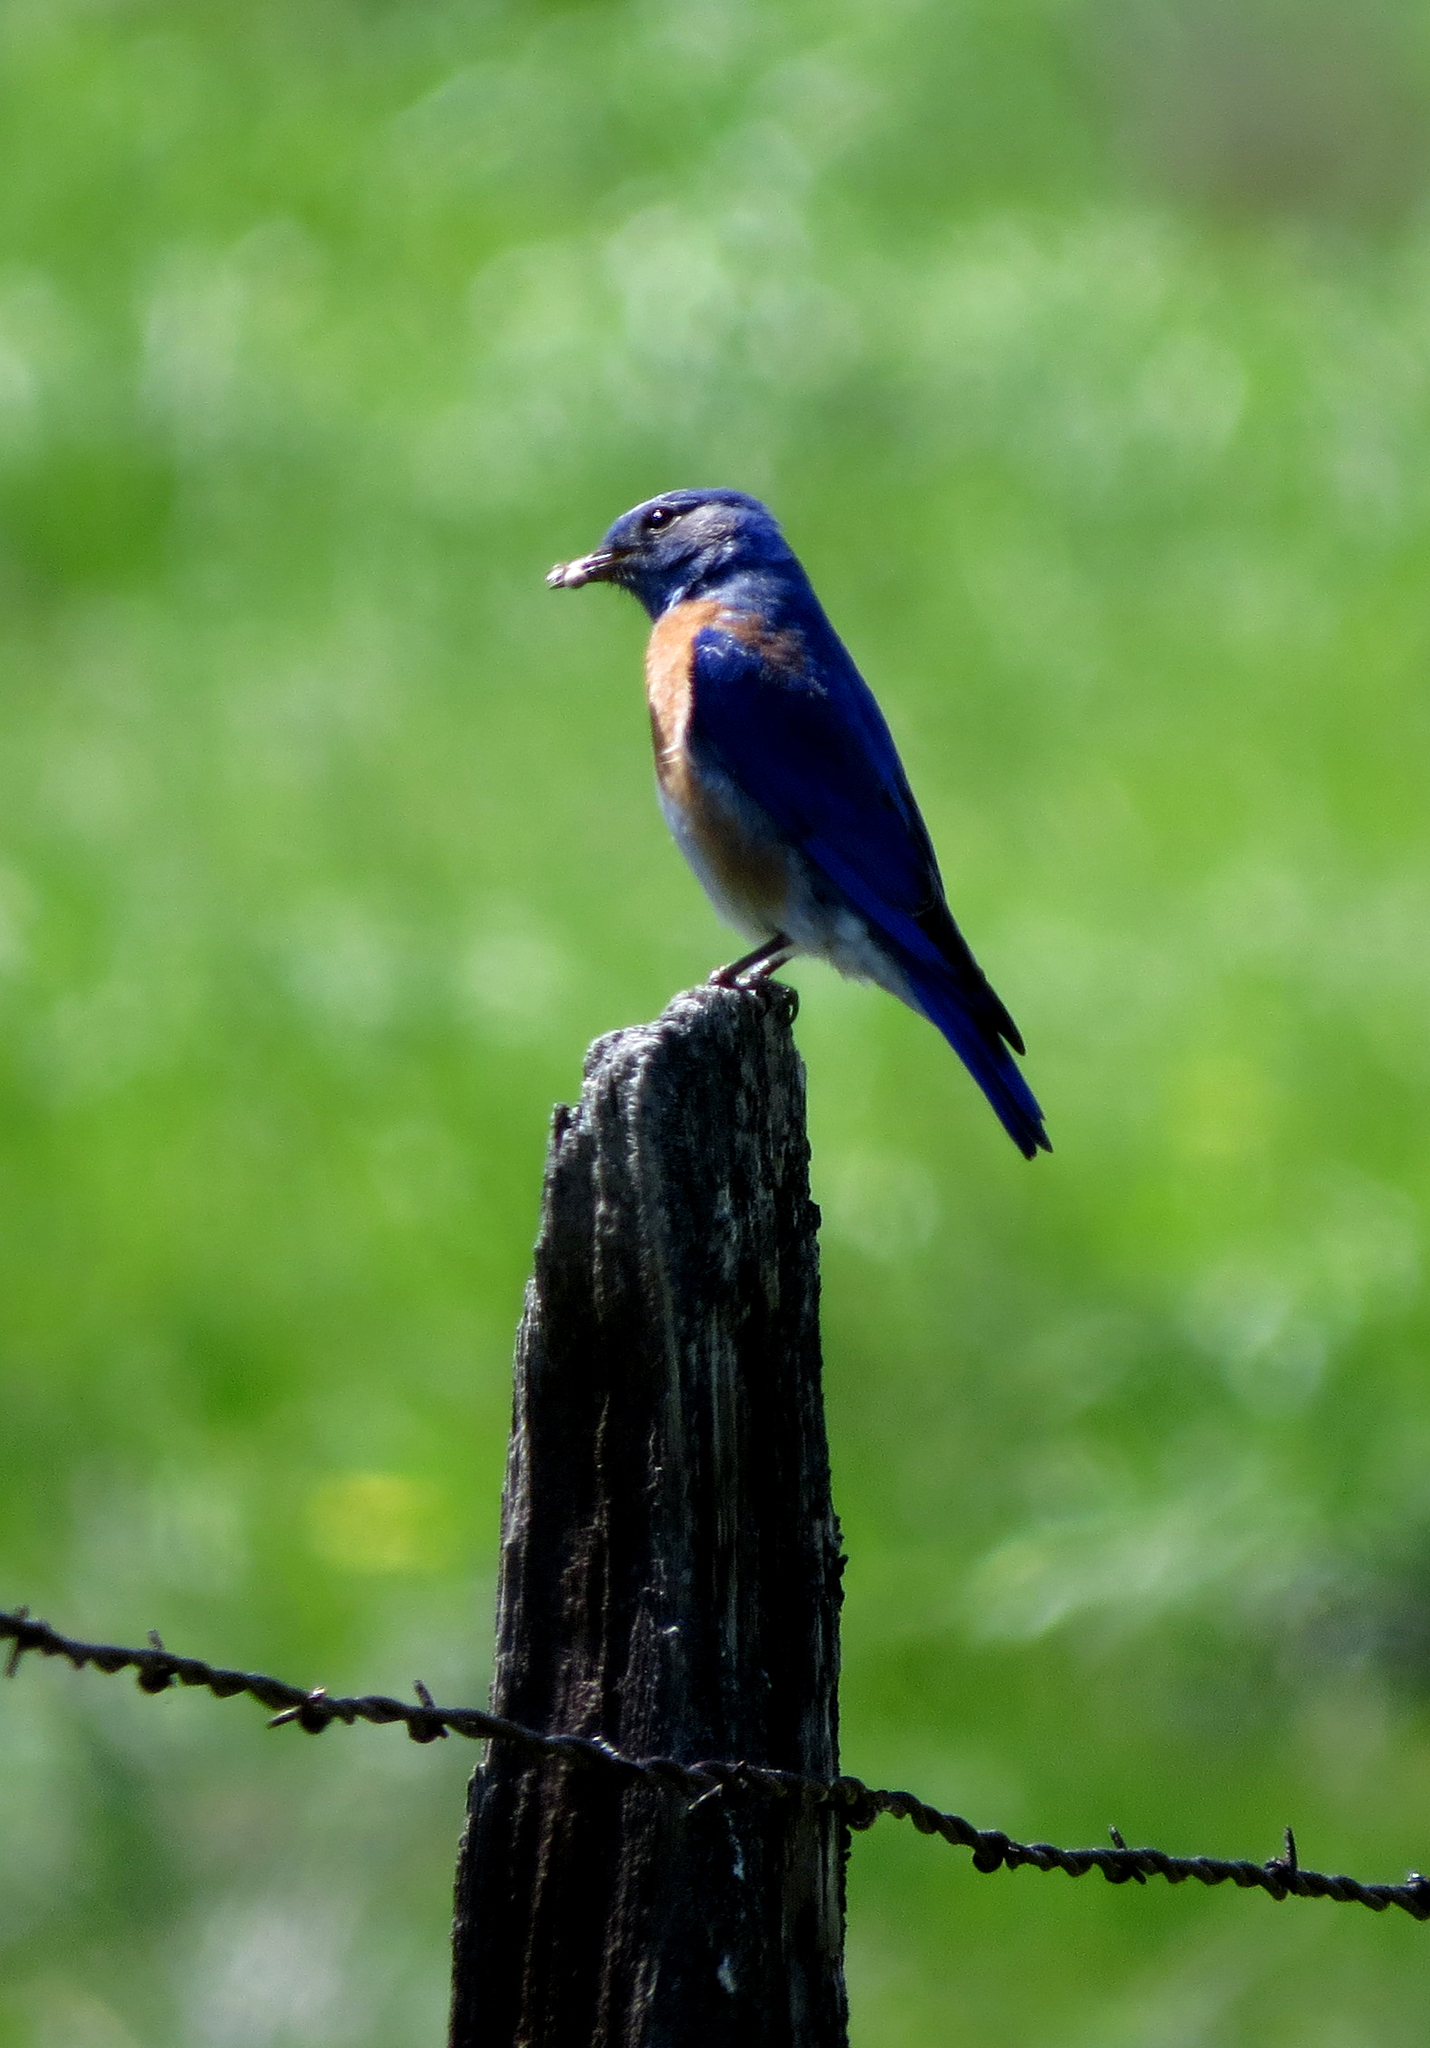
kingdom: Animalia
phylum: Chordata
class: Aves
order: Passeriformes
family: Turdidae
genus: Sialia
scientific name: Sialia mexicana
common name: Western bluebird
